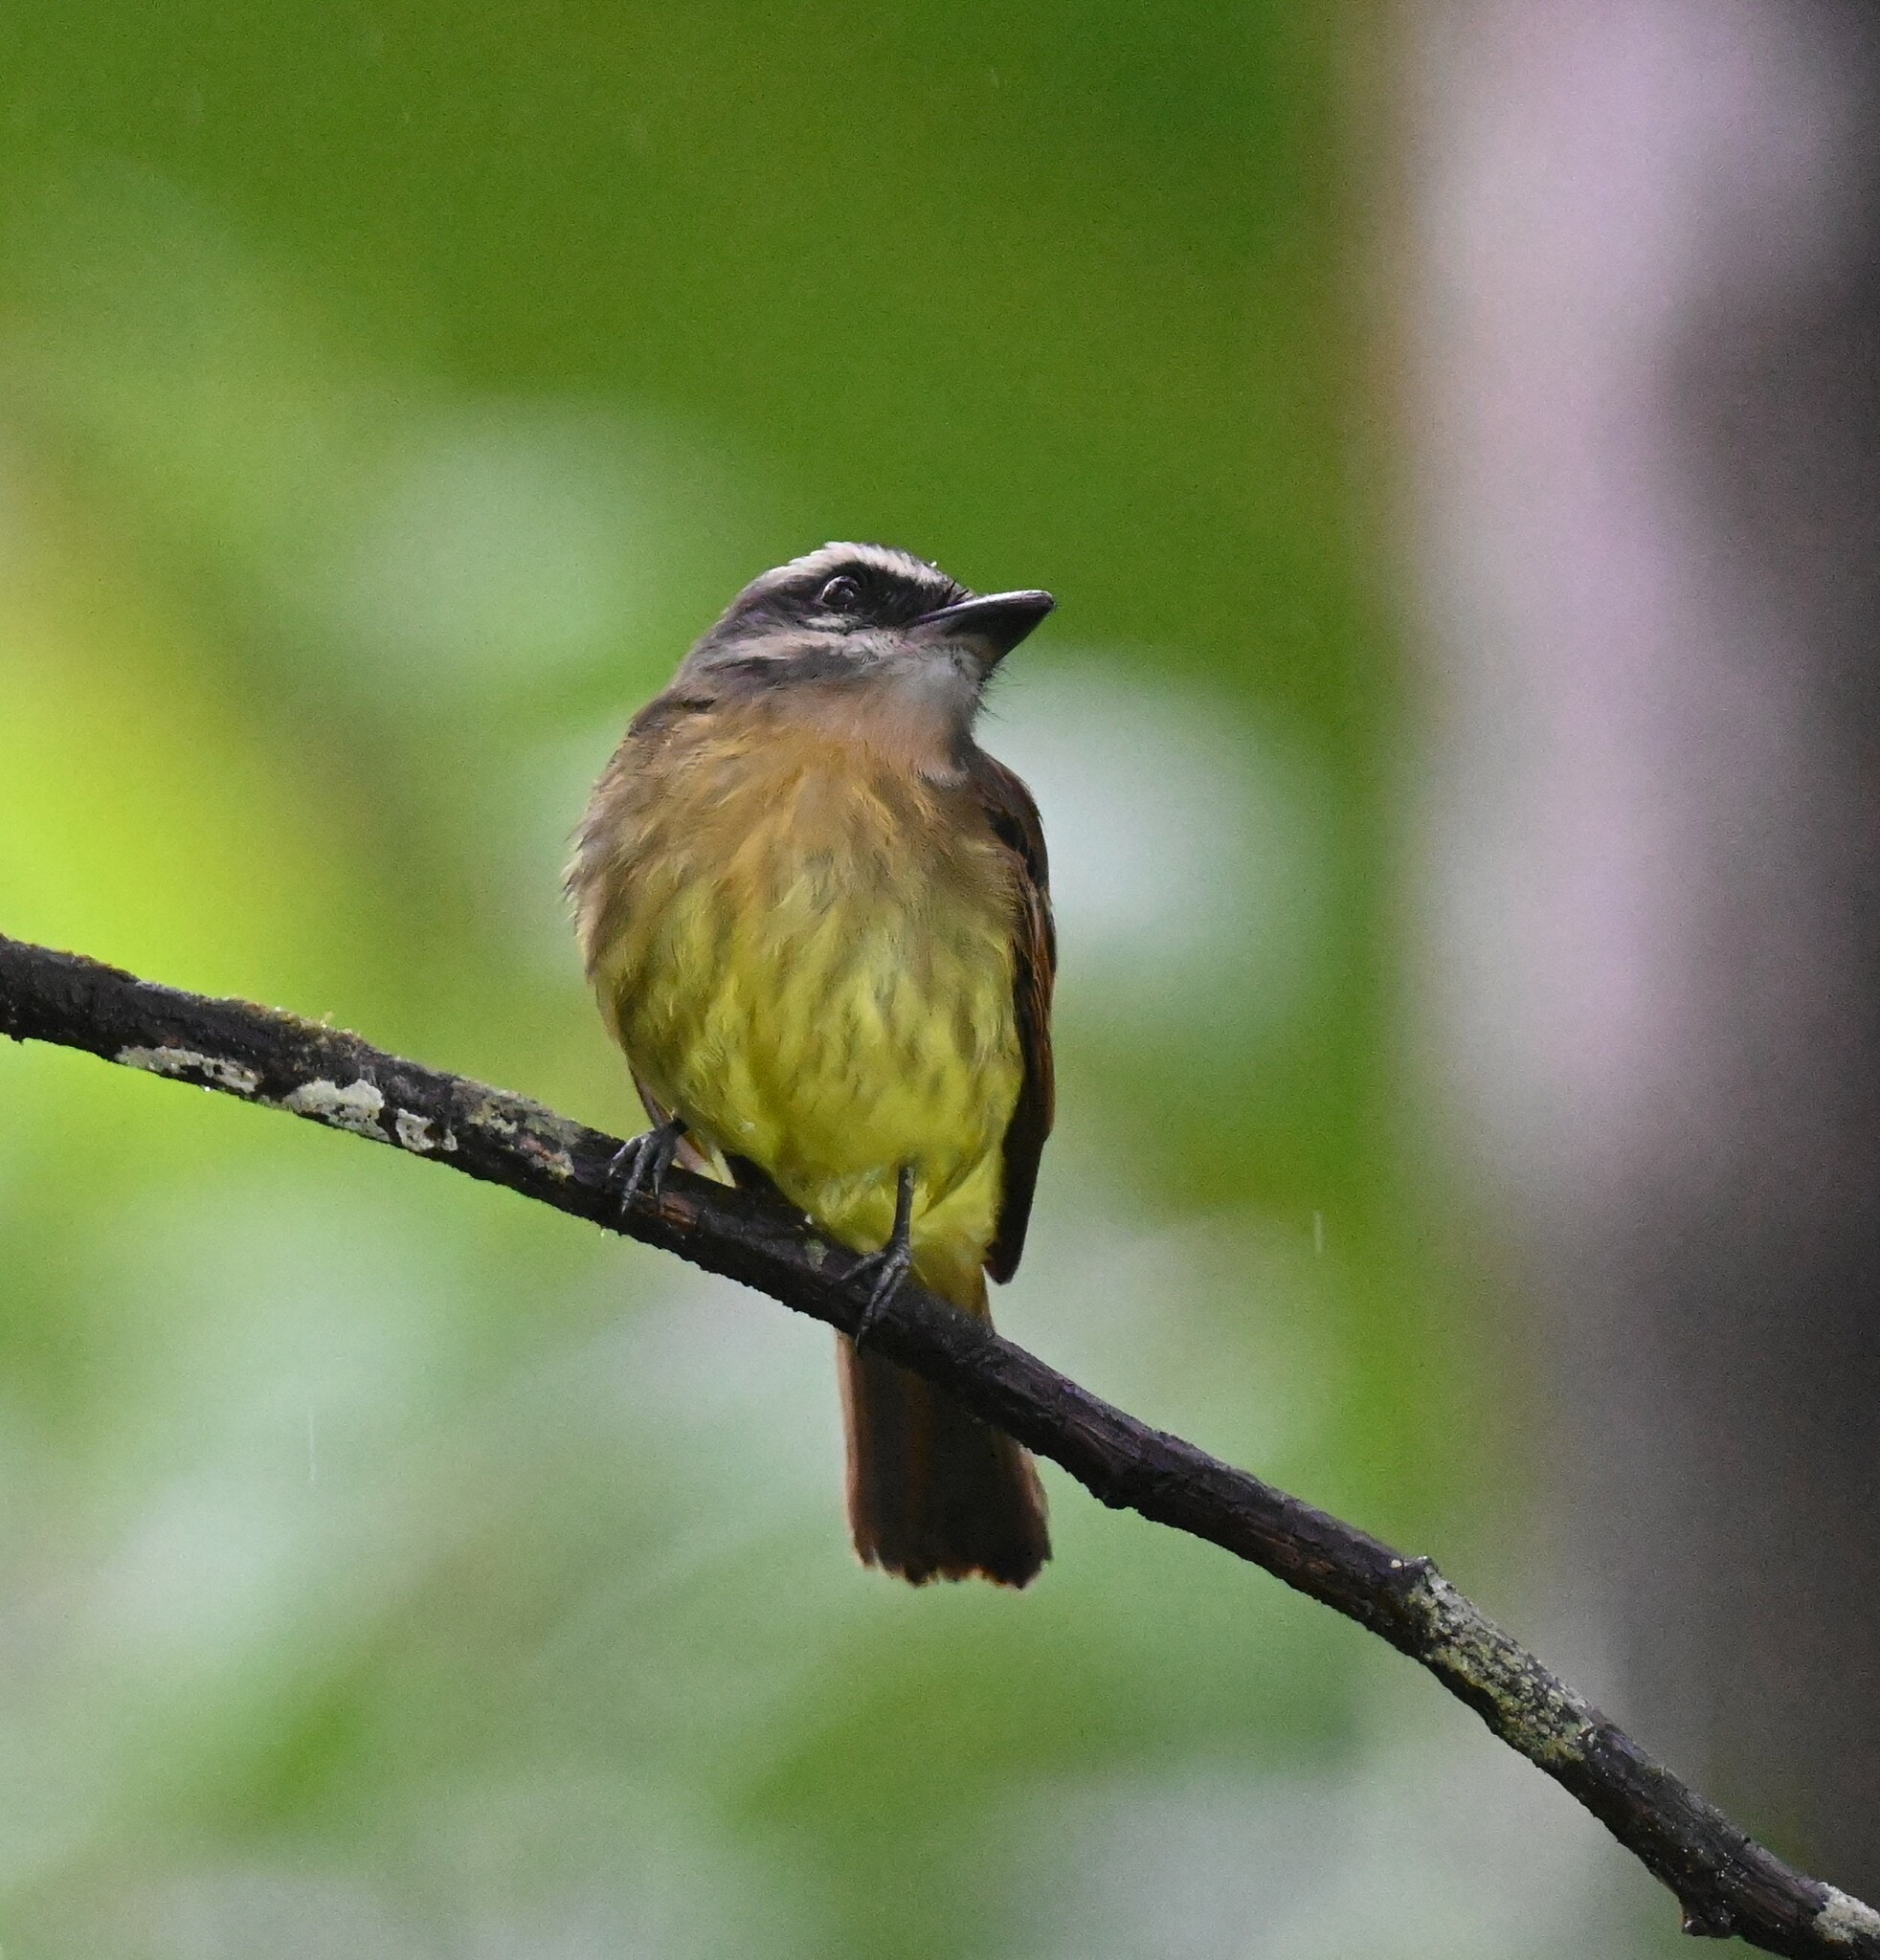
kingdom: Animalia
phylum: Chordata
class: Aves
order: Passeriformes
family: Tyrannidae
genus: Myiodynastes
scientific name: Myiodynastes hemichrysus
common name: Golden-bellied flycatcher
